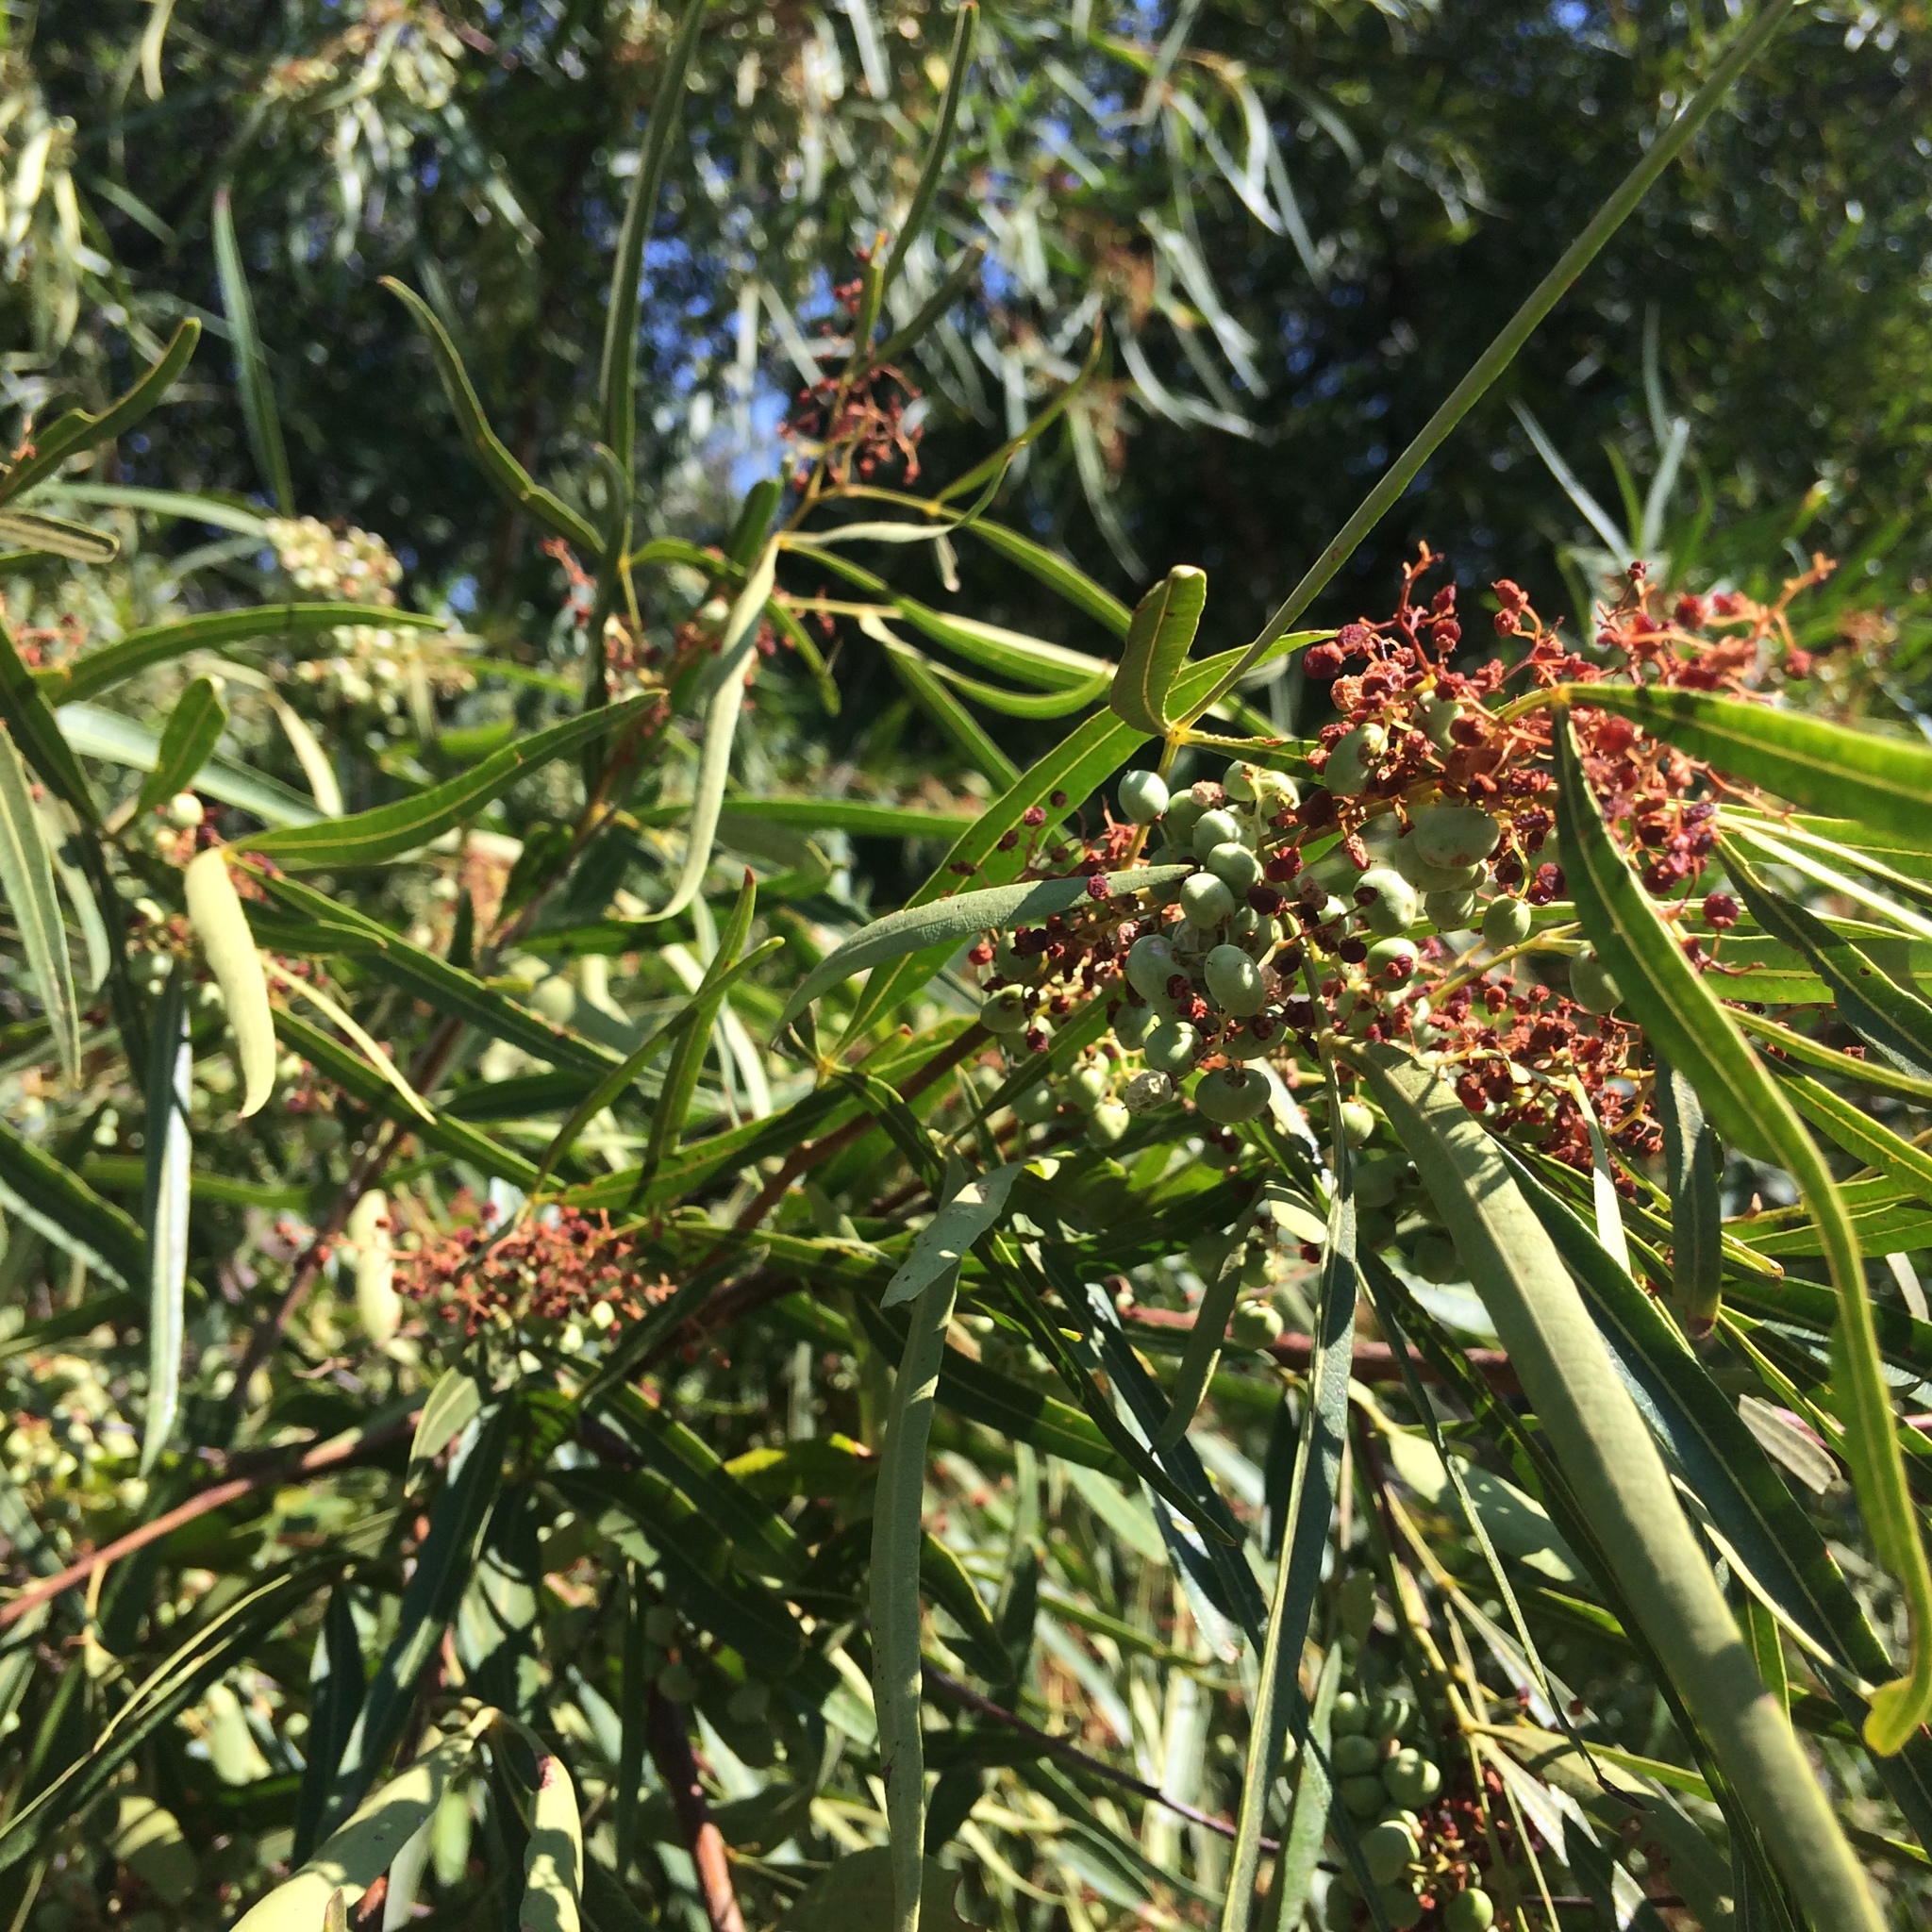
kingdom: Plantae
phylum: Tracheophyta
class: Magnoliopsida
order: Sapindales
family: Anacardiaceae
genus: Searsia
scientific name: Searsia lancea
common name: Cashew
